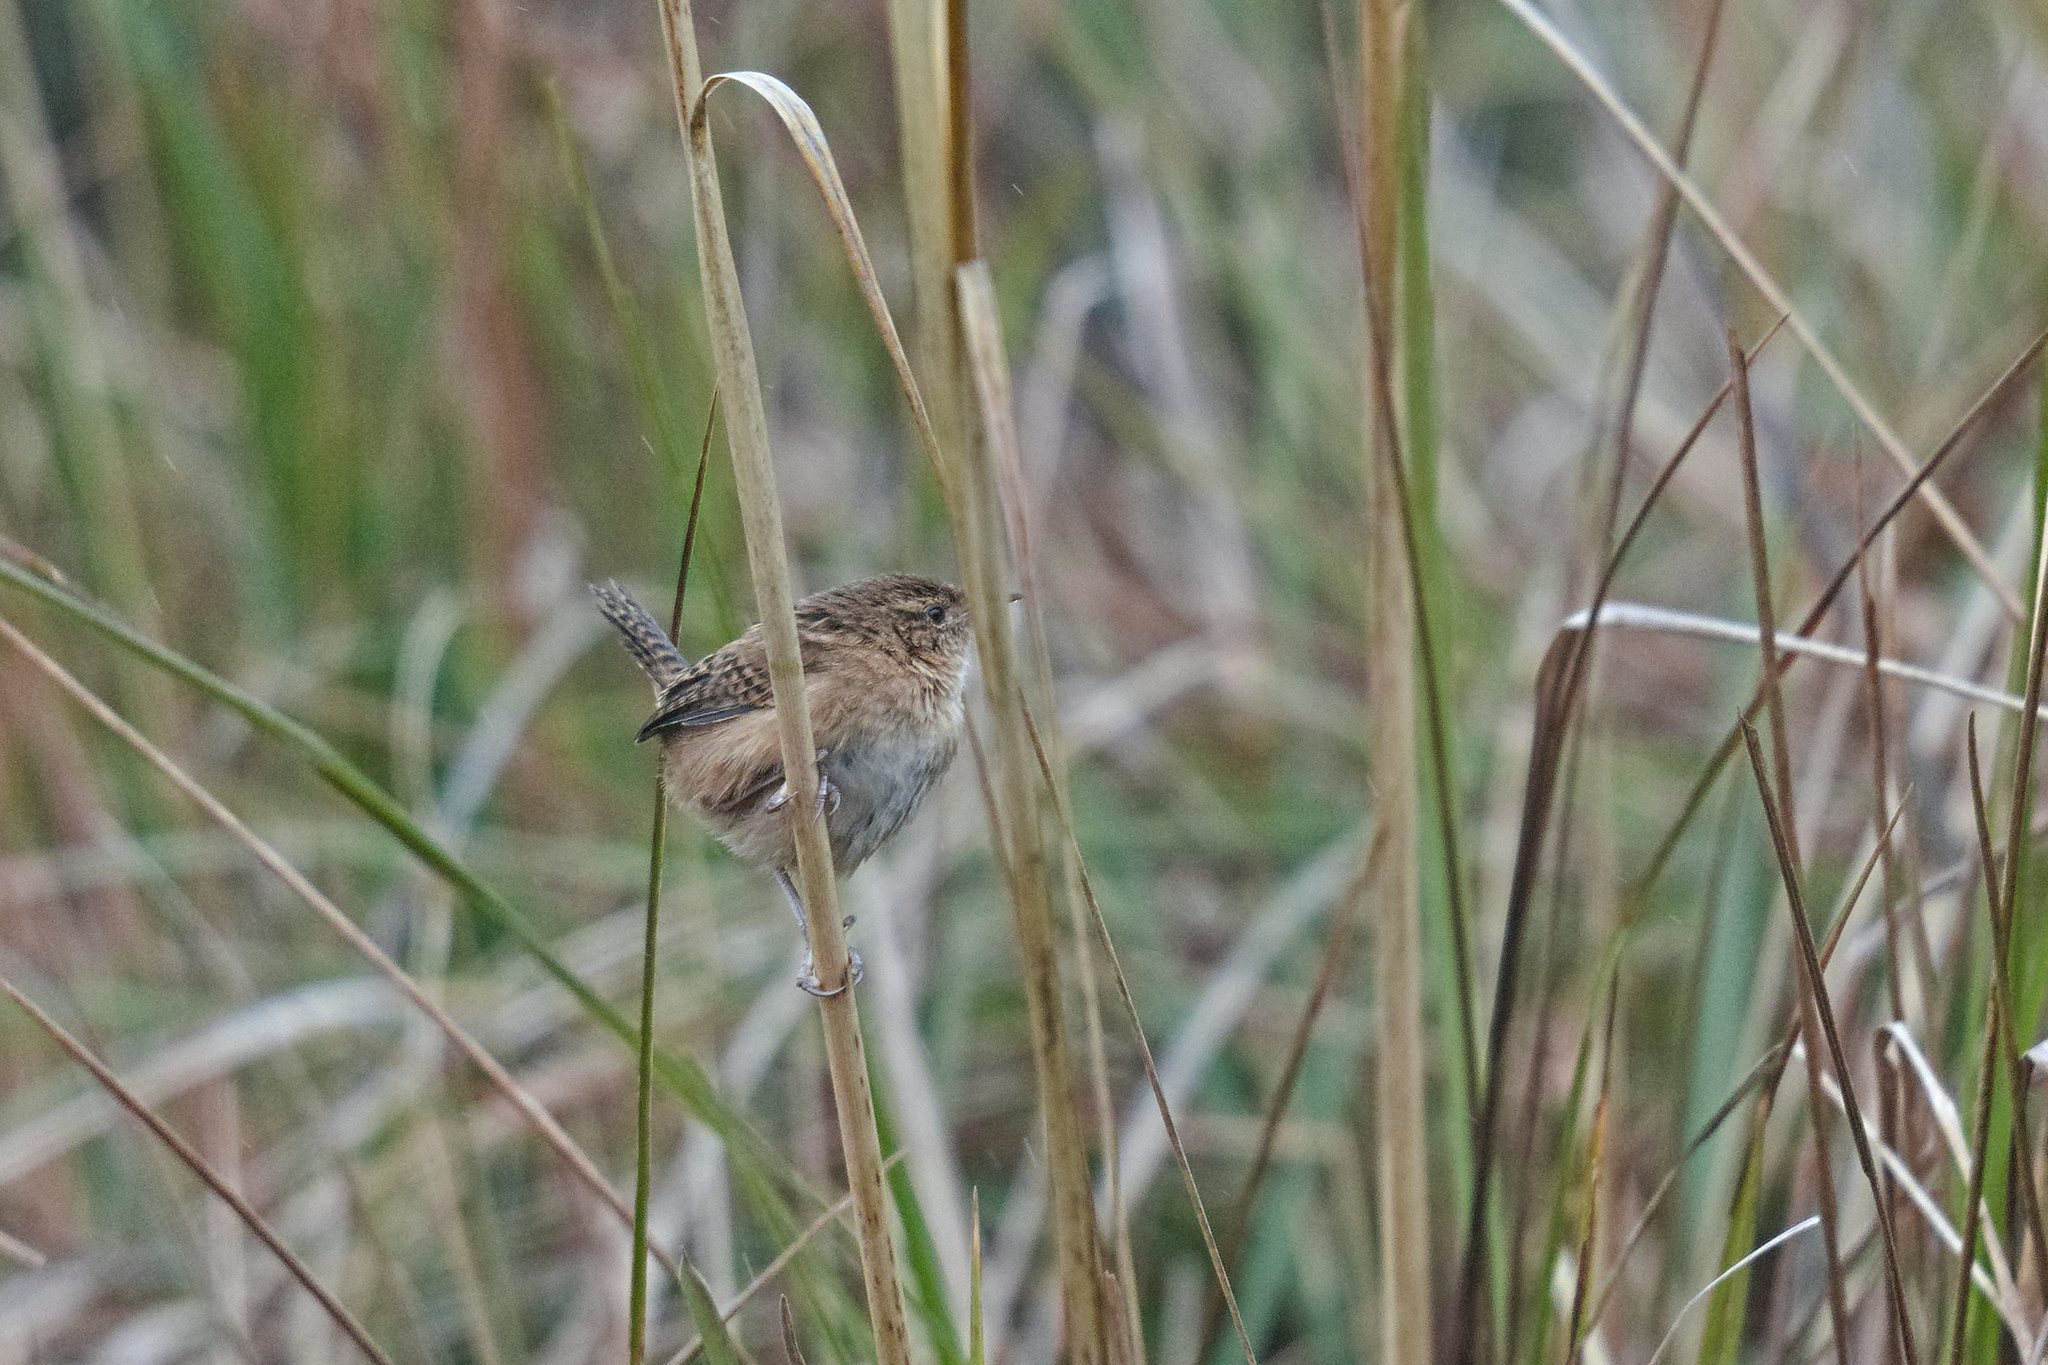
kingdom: Animalia
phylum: Chordata
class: Aves
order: Passeriformes
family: Troglodytidae
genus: Cistothorus
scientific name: Cistothorus platensis
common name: Sedge wren
